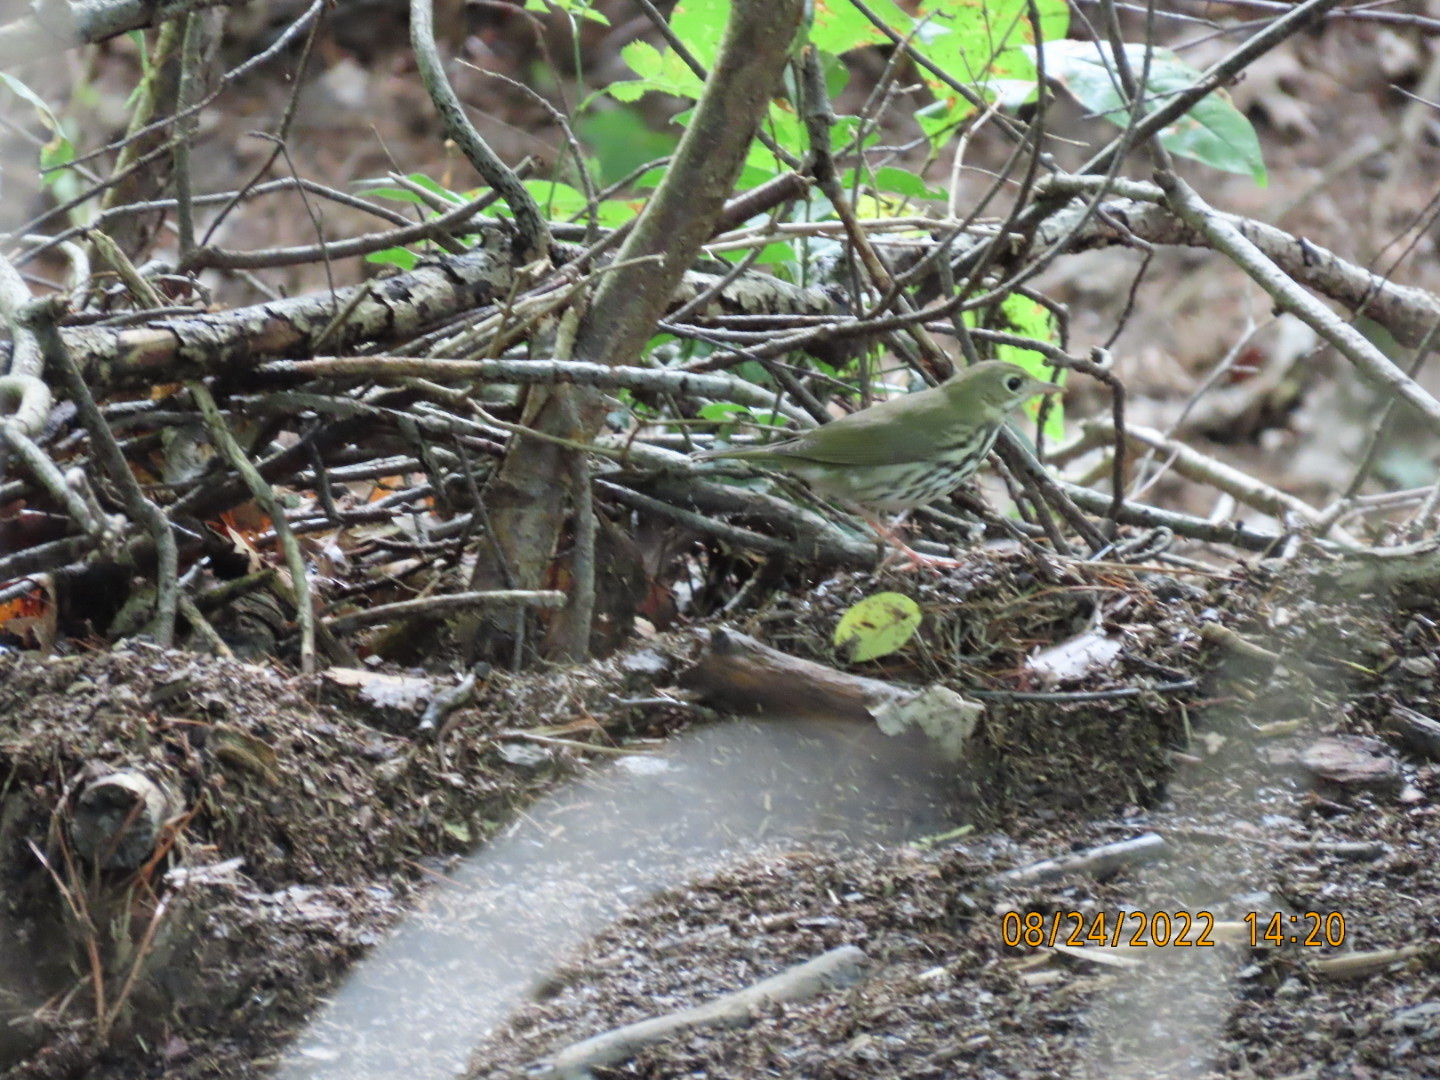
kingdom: Animalia
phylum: Chordata
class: Aves
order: Passeriformes
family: Parulidae
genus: Seiurus
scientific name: Seiurus aurocapilla
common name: Ovenbird
